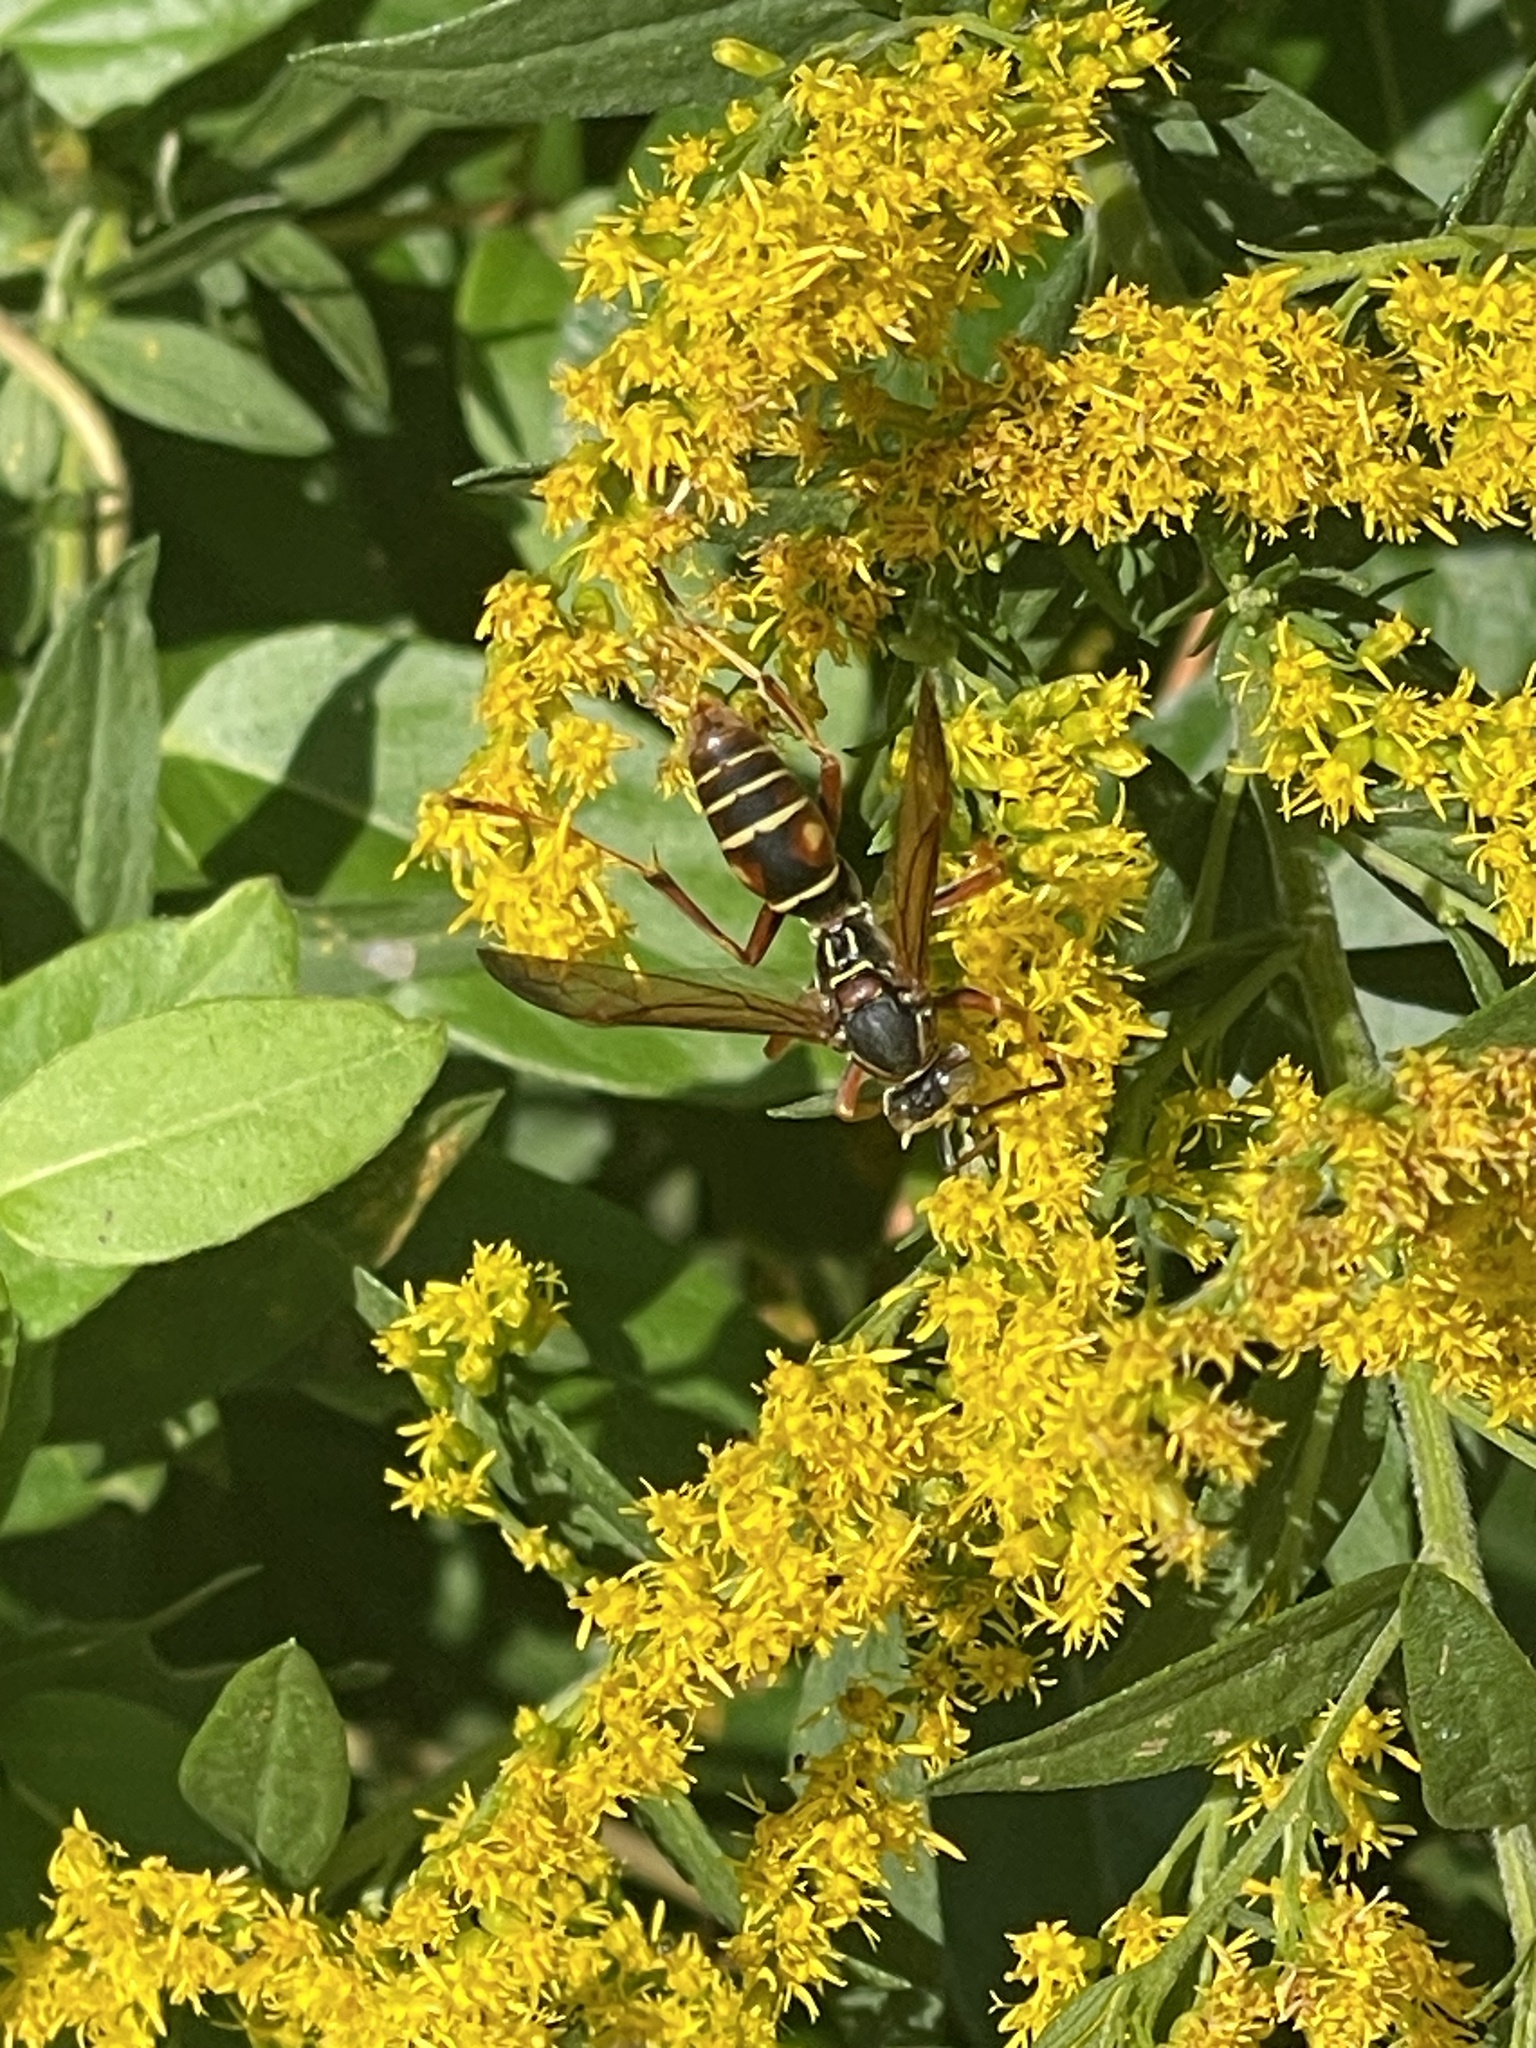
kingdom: Animalia
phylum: Arthropoda
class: Insecta
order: Hymenoptera
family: Eumenidae
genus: Polistes
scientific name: Polistes fuscatus
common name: Dark paper wasp
